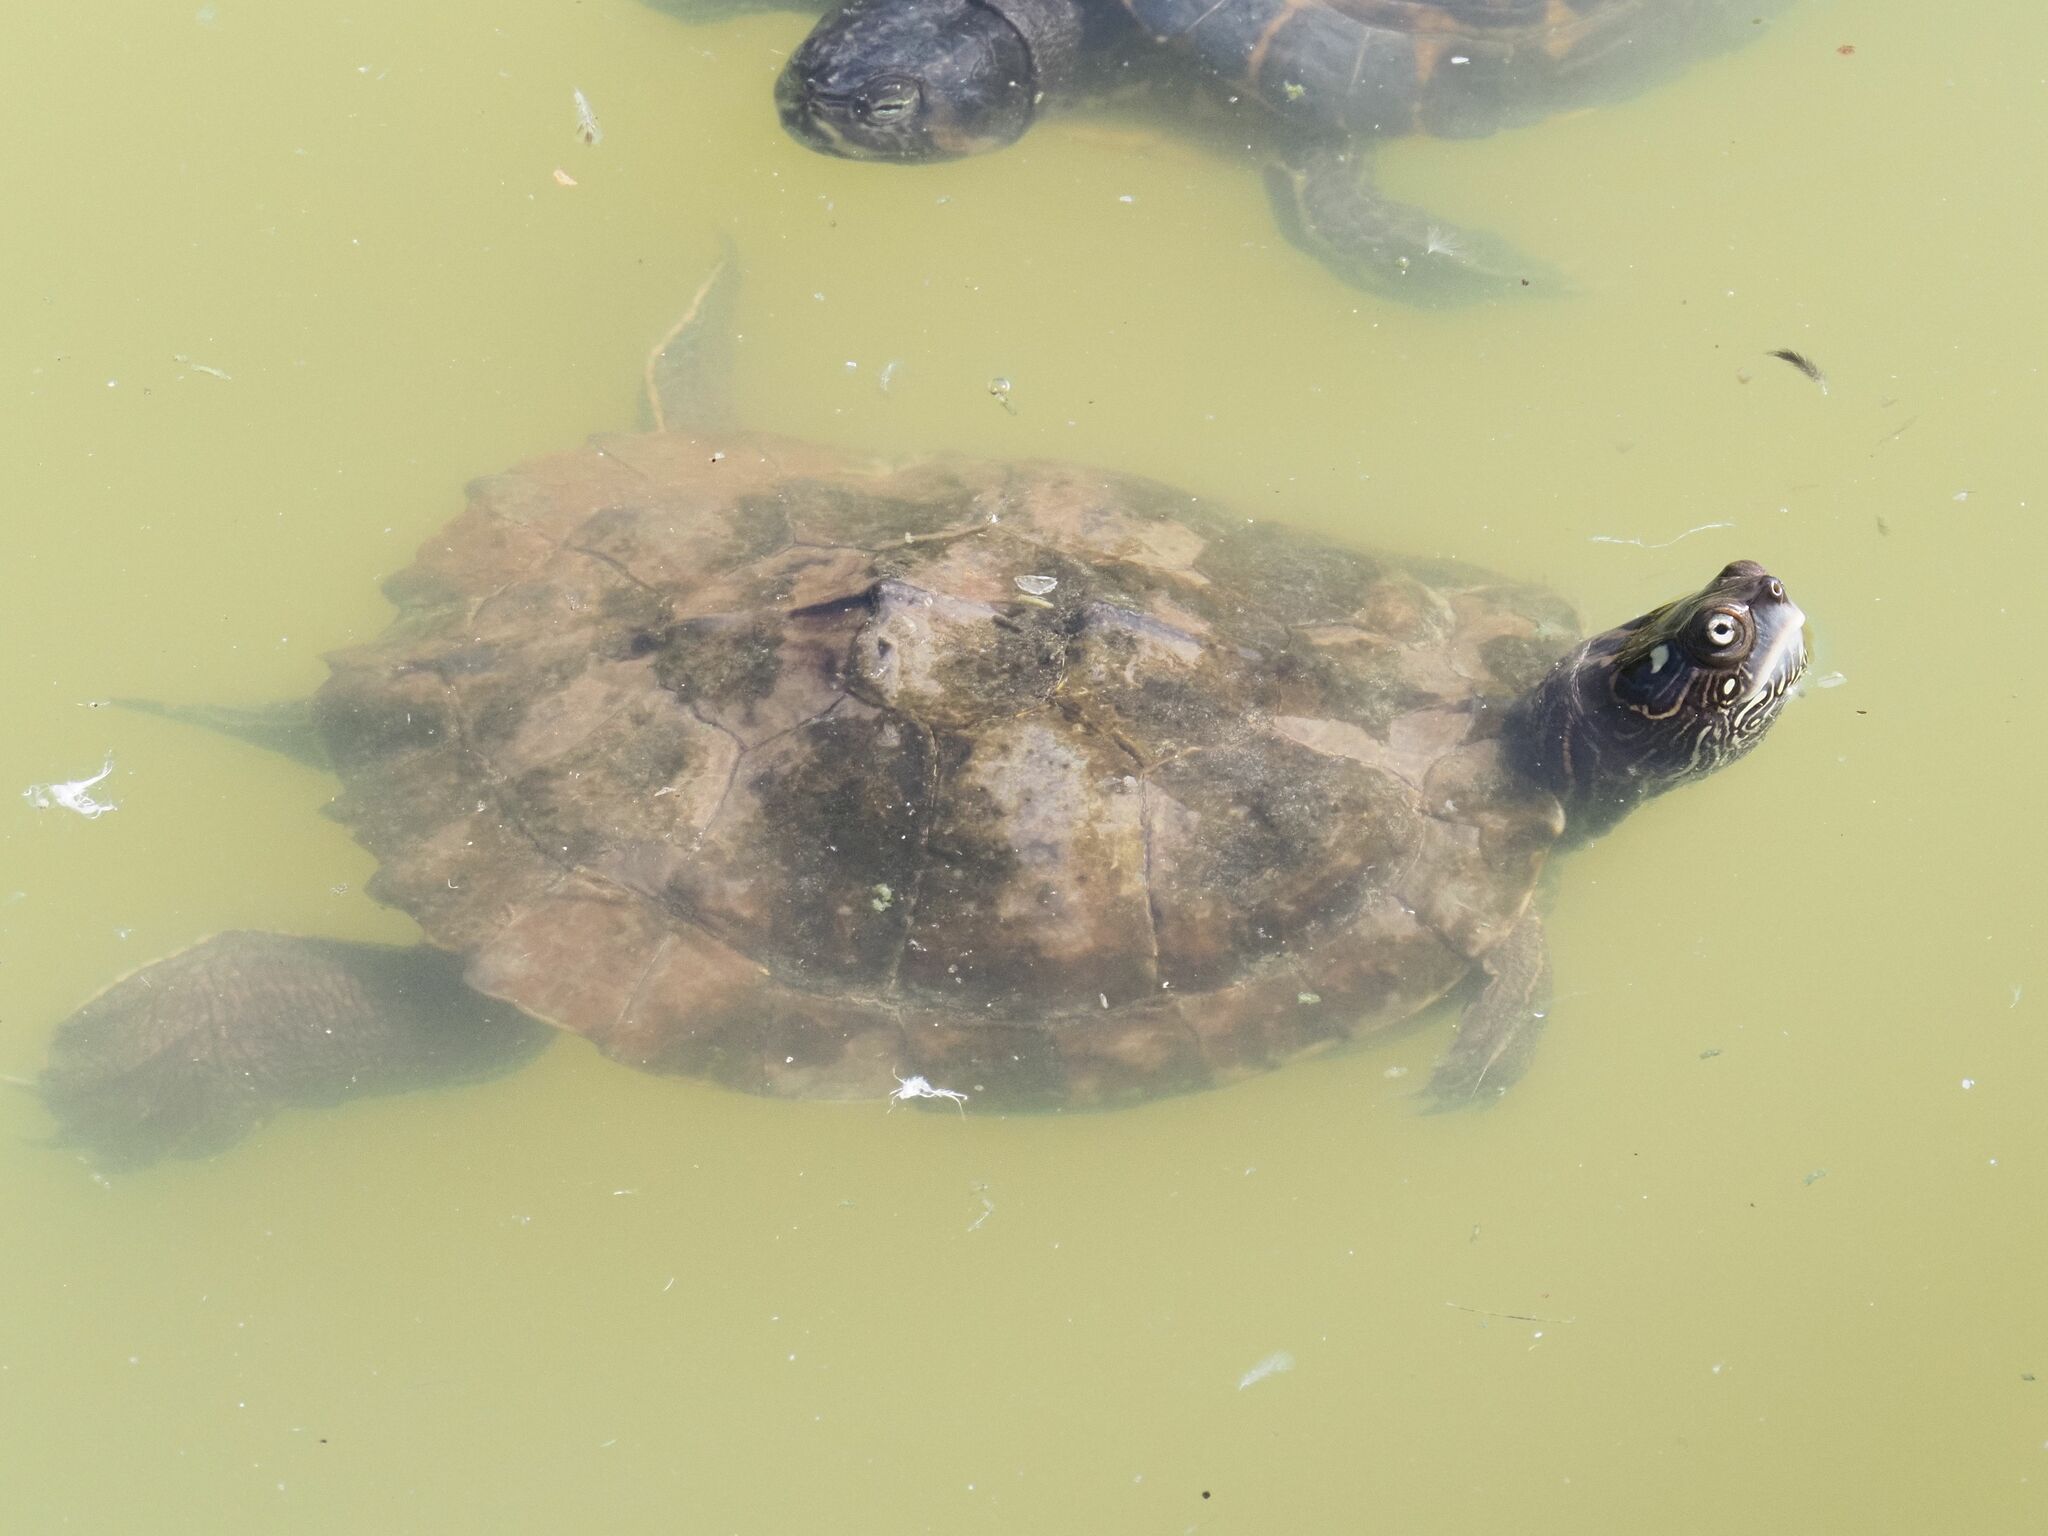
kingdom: Animalia
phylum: Chordata
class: Testudines
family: Emydidae
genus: Graptemys
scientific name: Graptemys ouachitensis
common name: Ouachita map turtle
